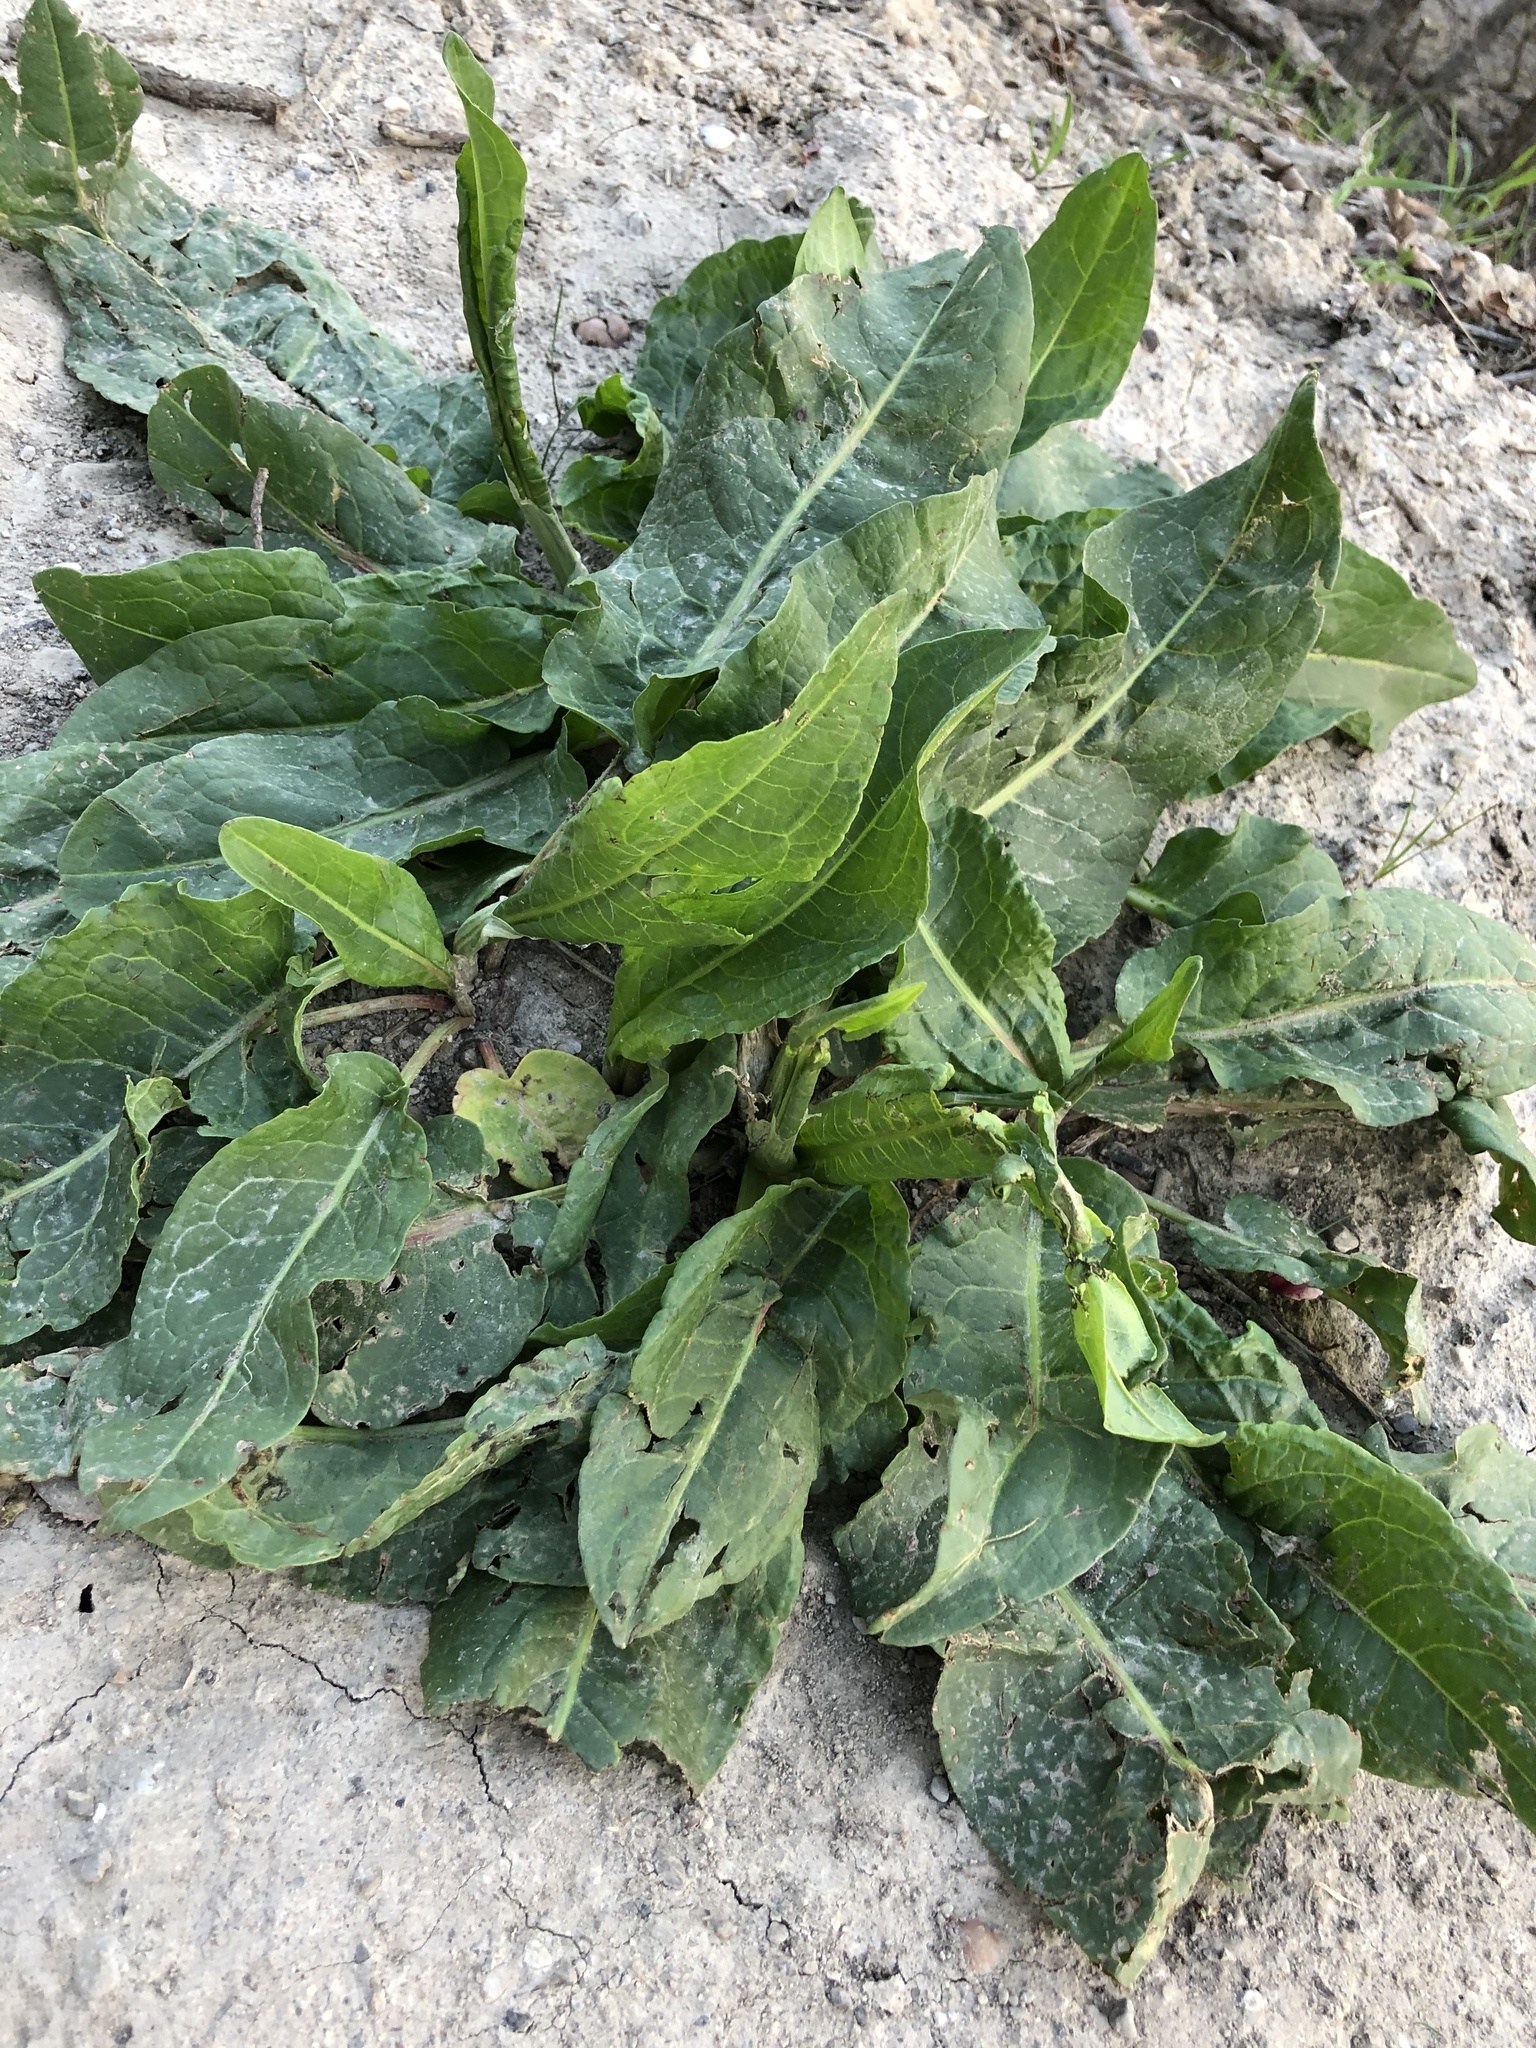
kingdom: Plantae
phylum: Tracheophyta
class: Magnoliopsida
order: Caryophyllales
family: Polygonaceae
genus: Rumex
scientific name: Rumex crispus
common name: Curled dock
